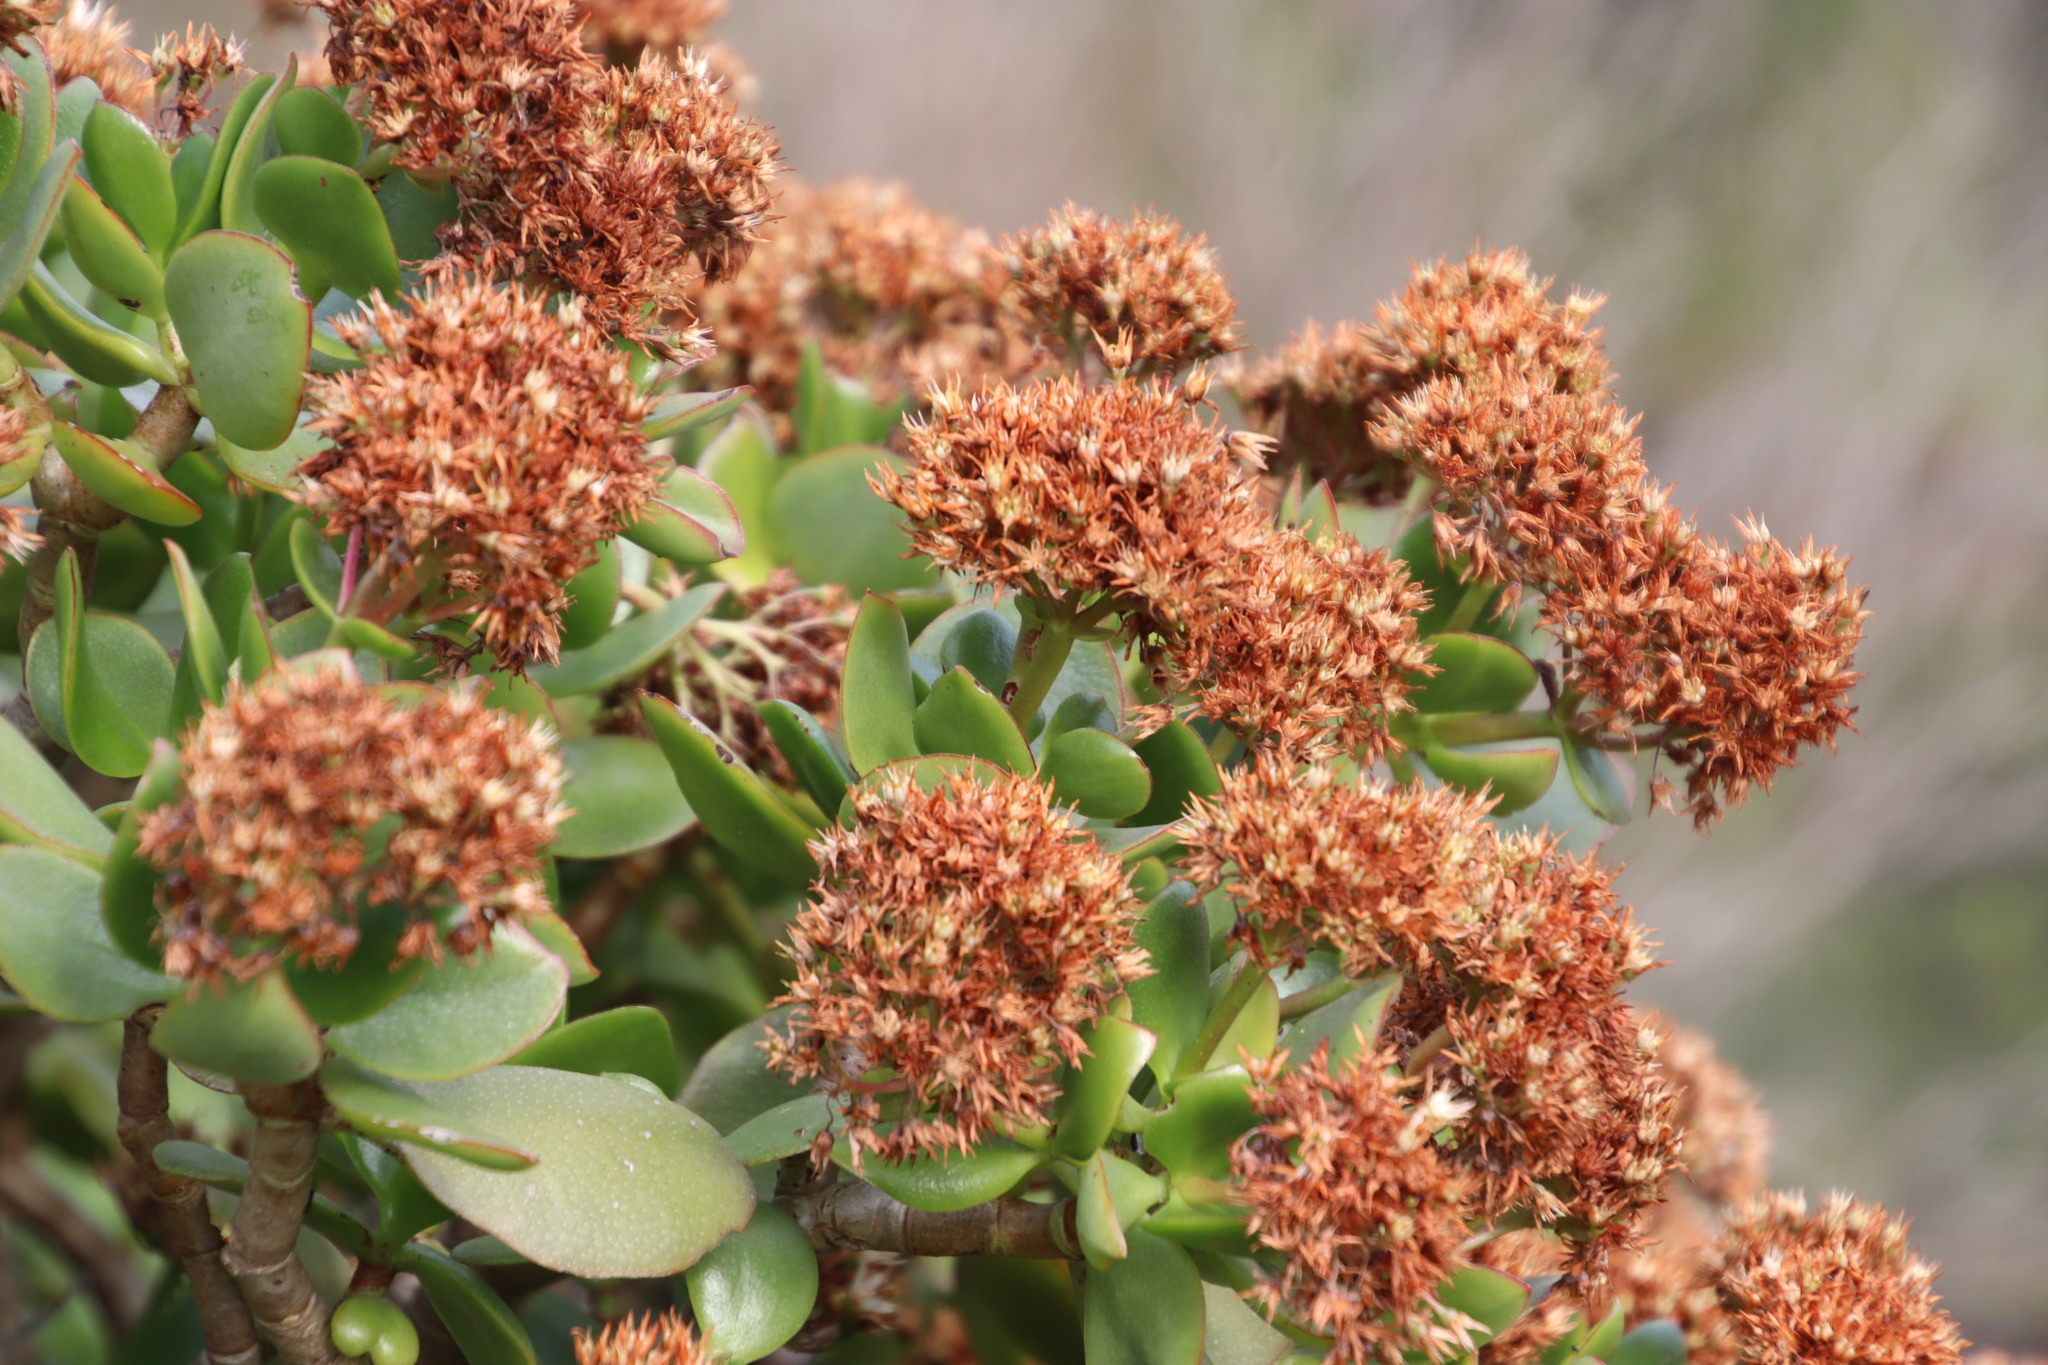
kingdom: Plantae
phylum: Tracheophyta
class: Magnoliopsida
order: Saxifragales
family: Crassulaceae
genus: Crassula
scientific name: Crassula ovata
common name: Jade plant
